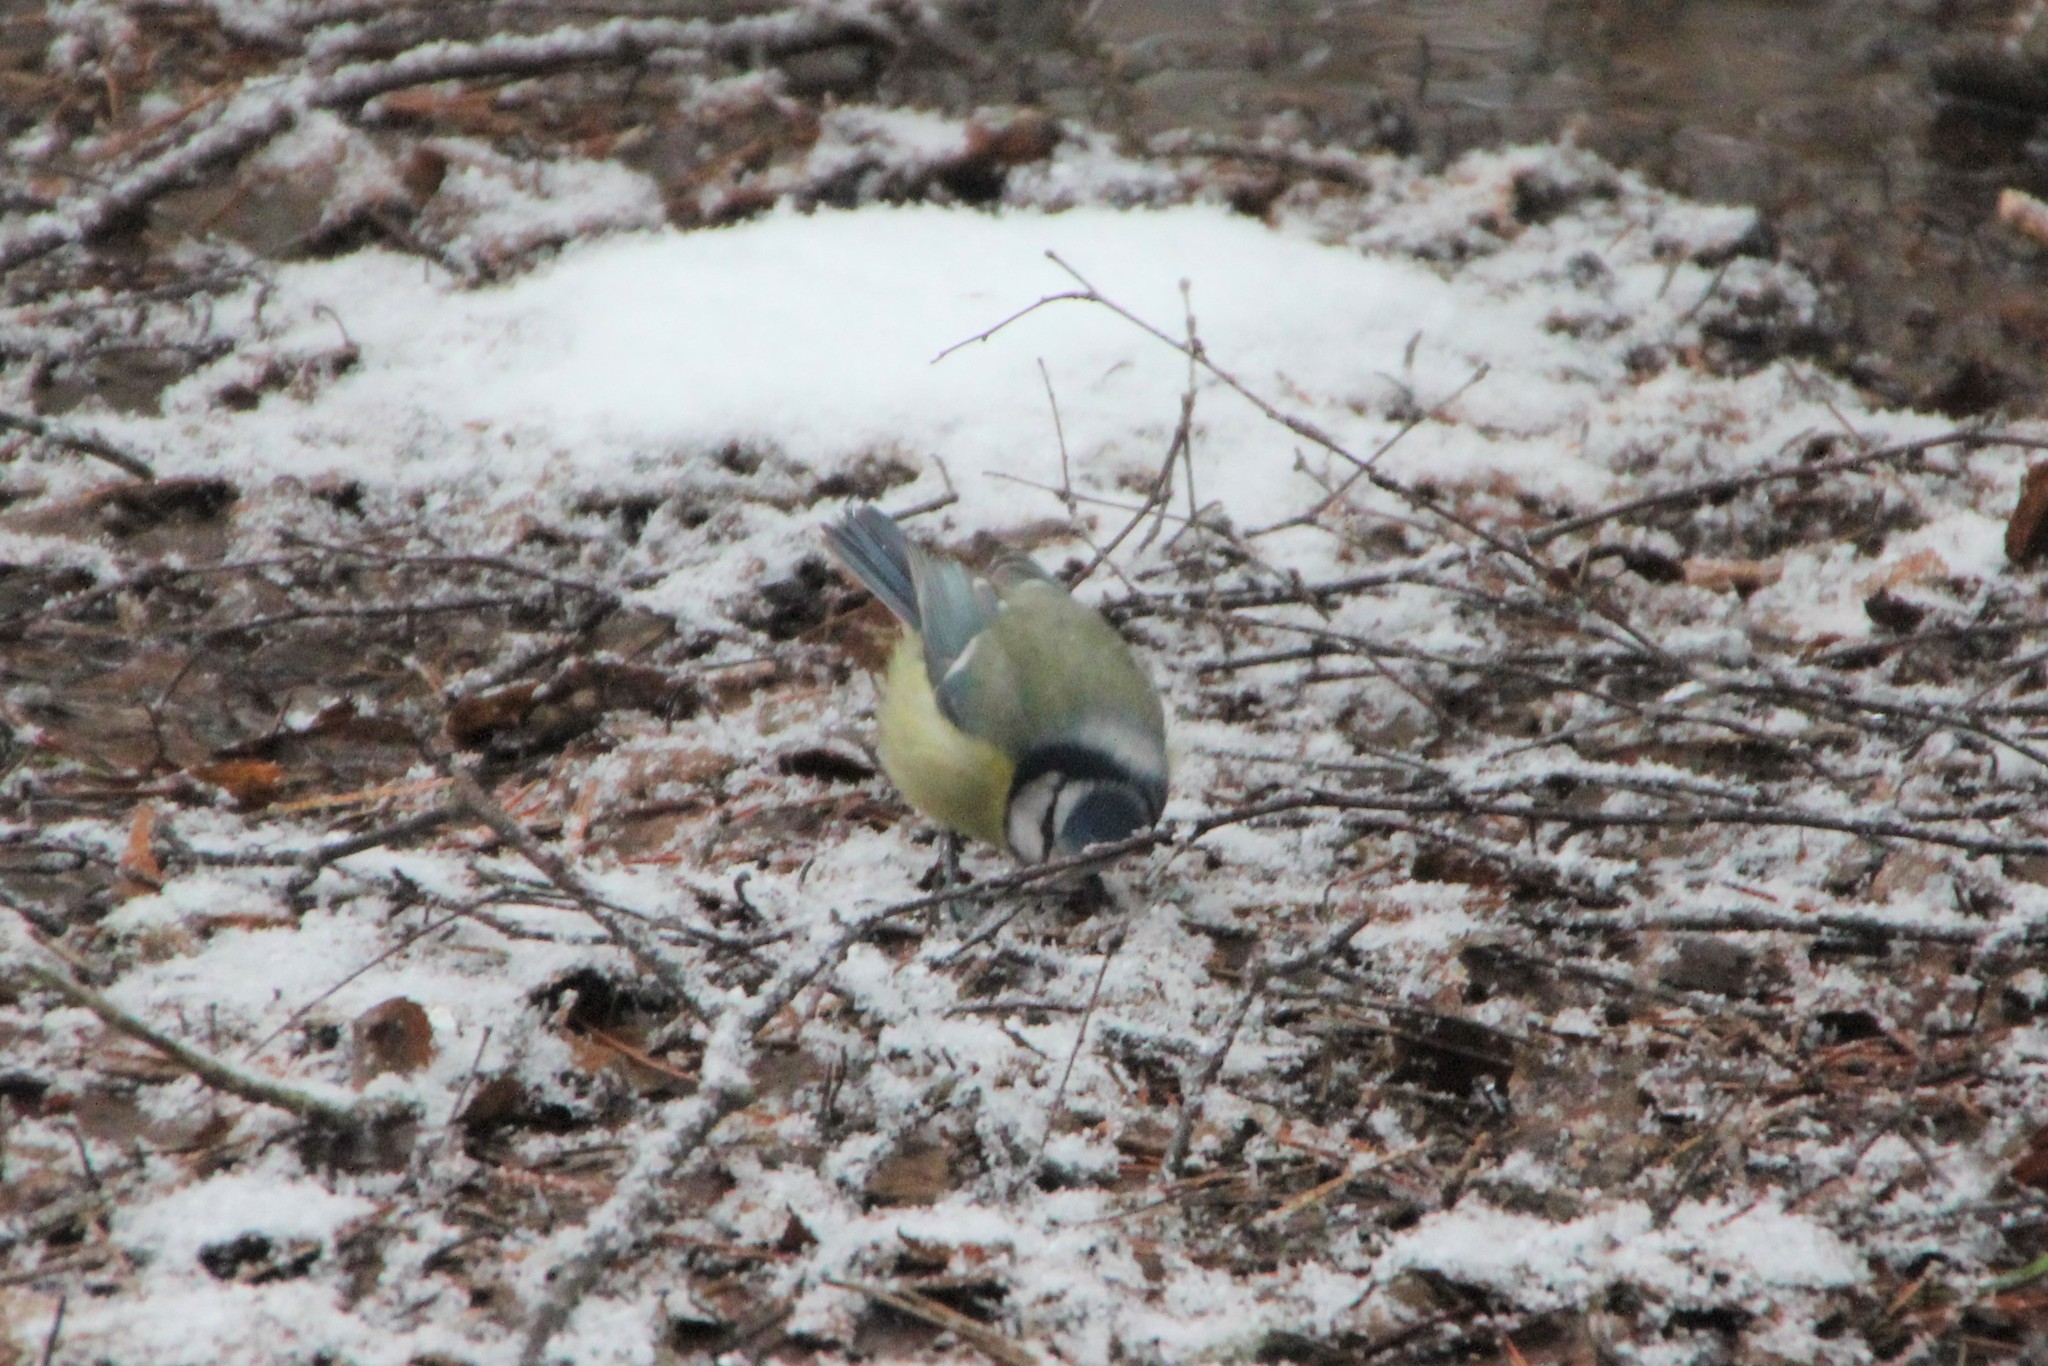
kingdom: Animalia
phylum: Chordata
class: Aves
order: Passeriformes
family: Paridae
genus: Cyanistes
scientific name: Cyanistes caeruleus
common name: Eurasian blue tit
